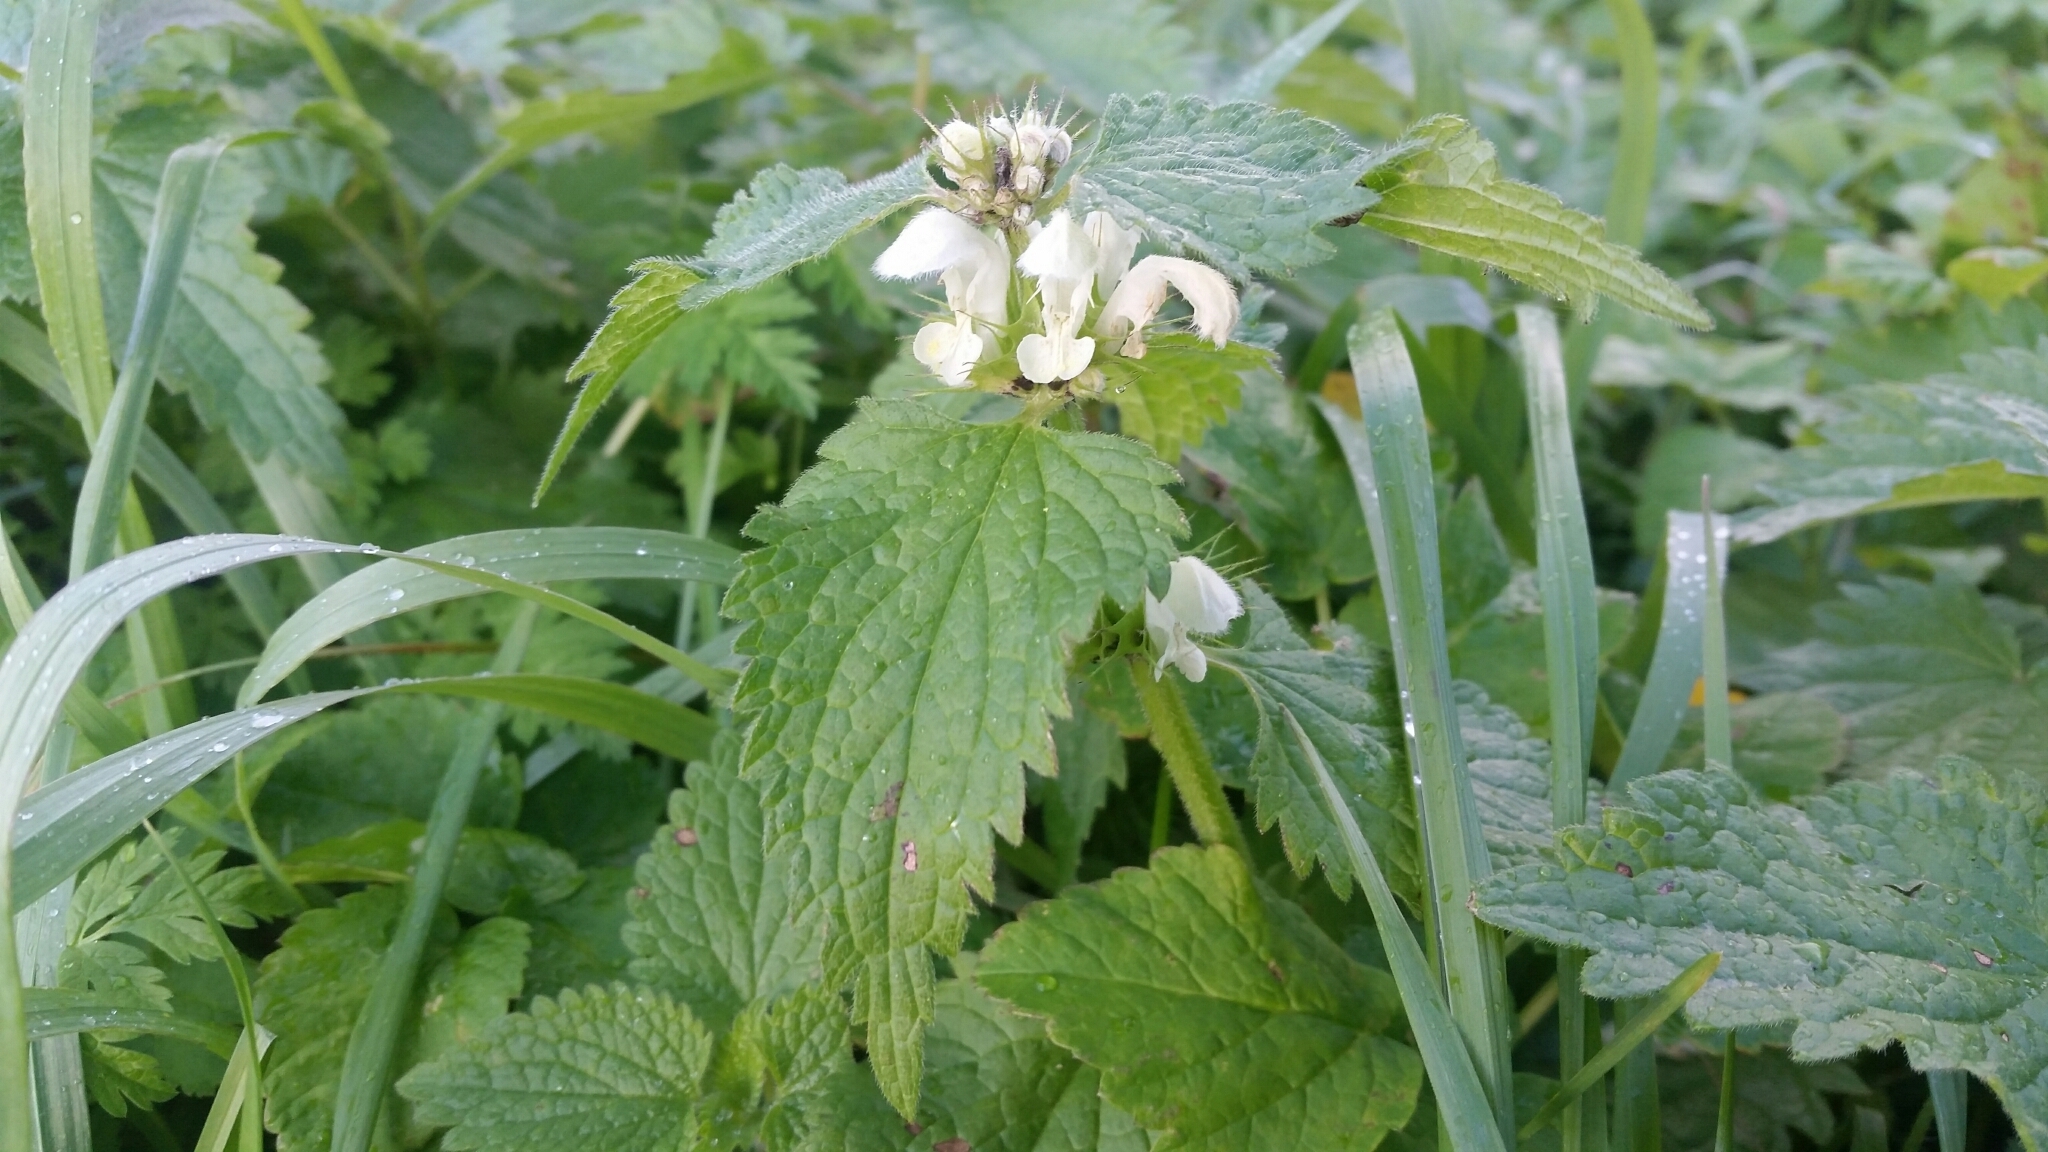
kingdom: Plantae
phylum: Tracheophyta
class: Magnoliopsida
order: Lamiales
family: Lamiaceae
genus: Lamium
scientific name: Lamium album
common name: White dead-nettle
